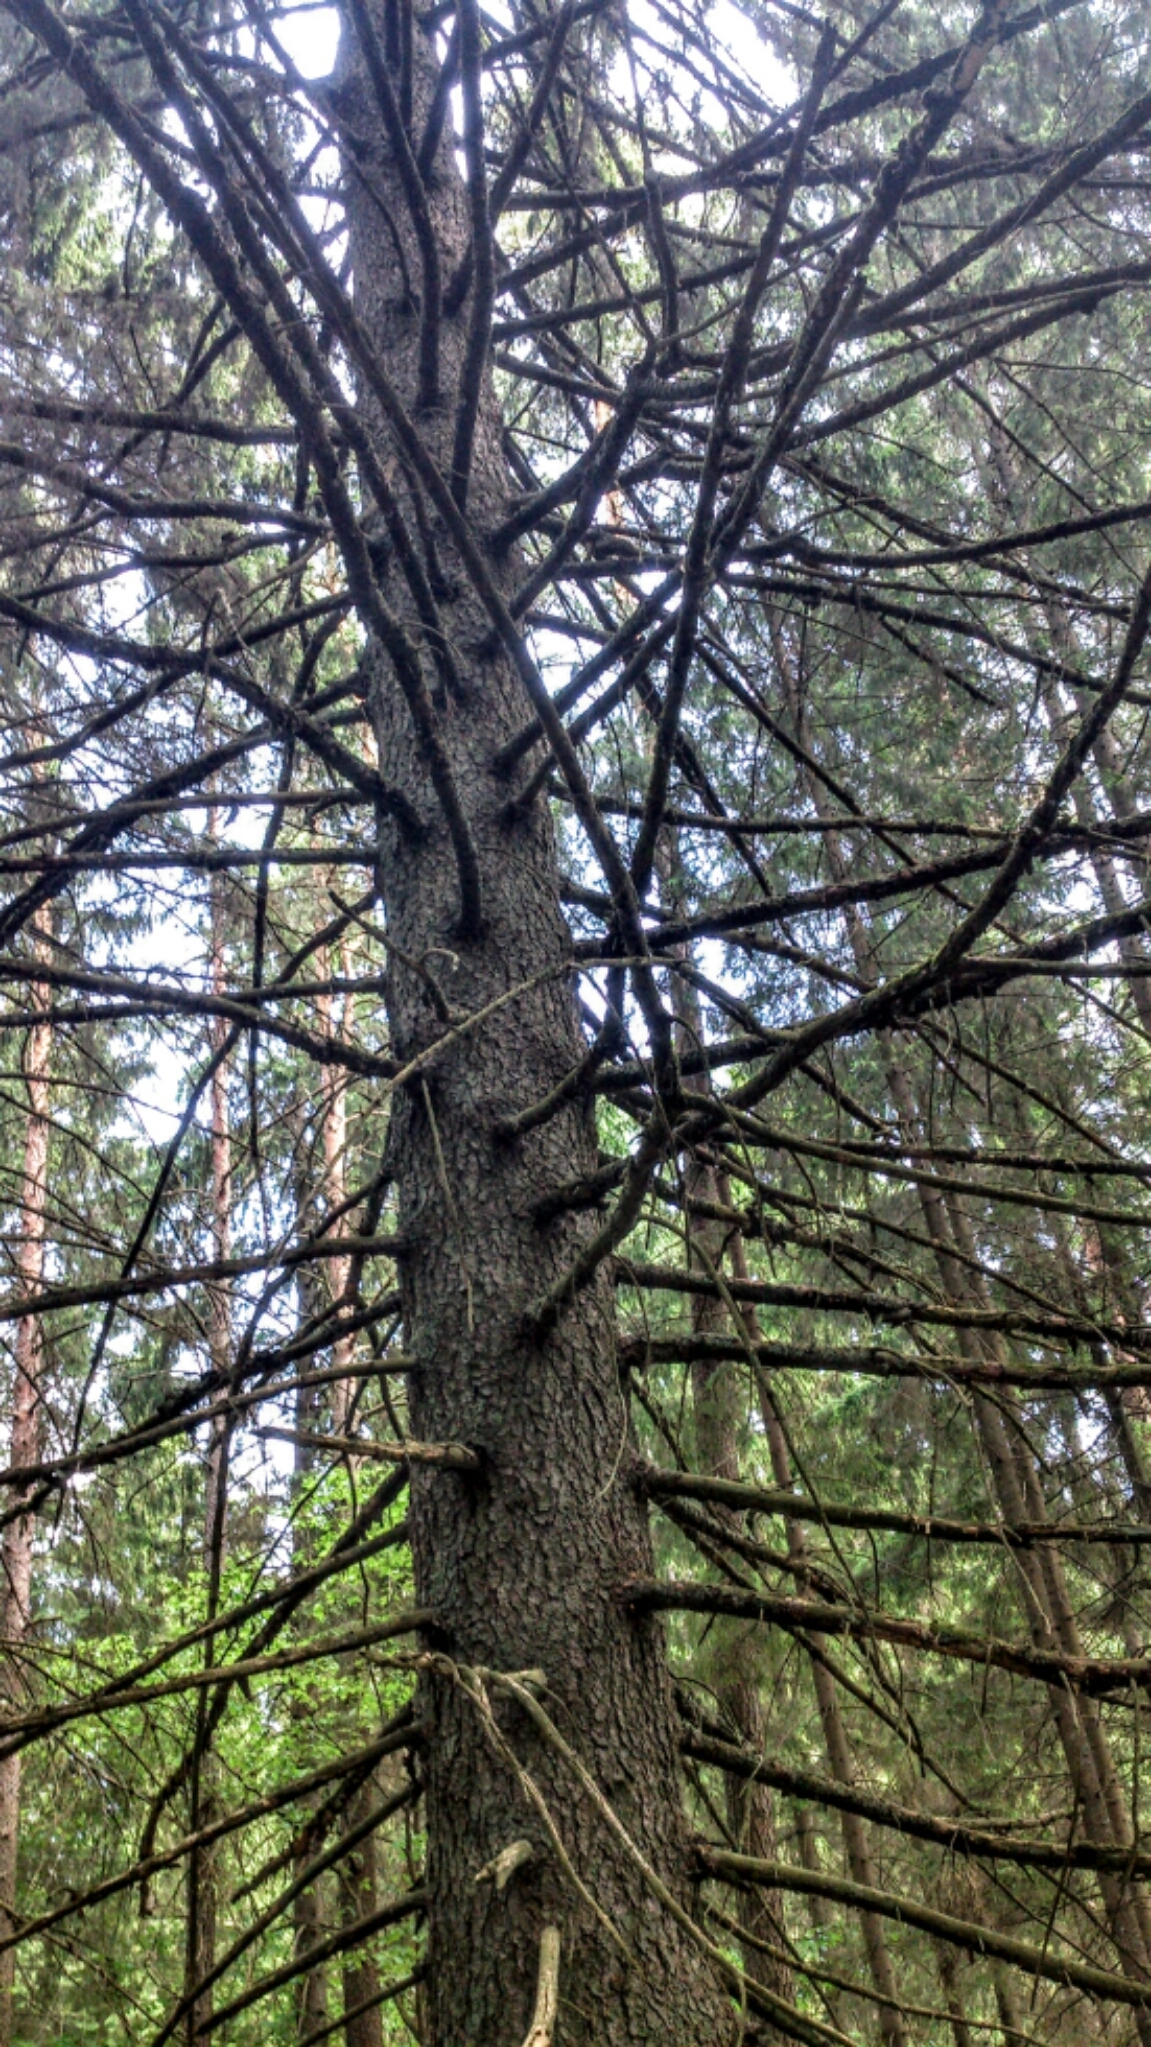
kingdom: Plantae
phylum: Tracheophyta
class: Pinopsida
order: Pinales
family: Pinaceae
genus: Picea
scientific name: Picea abies
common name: Norway spruce
